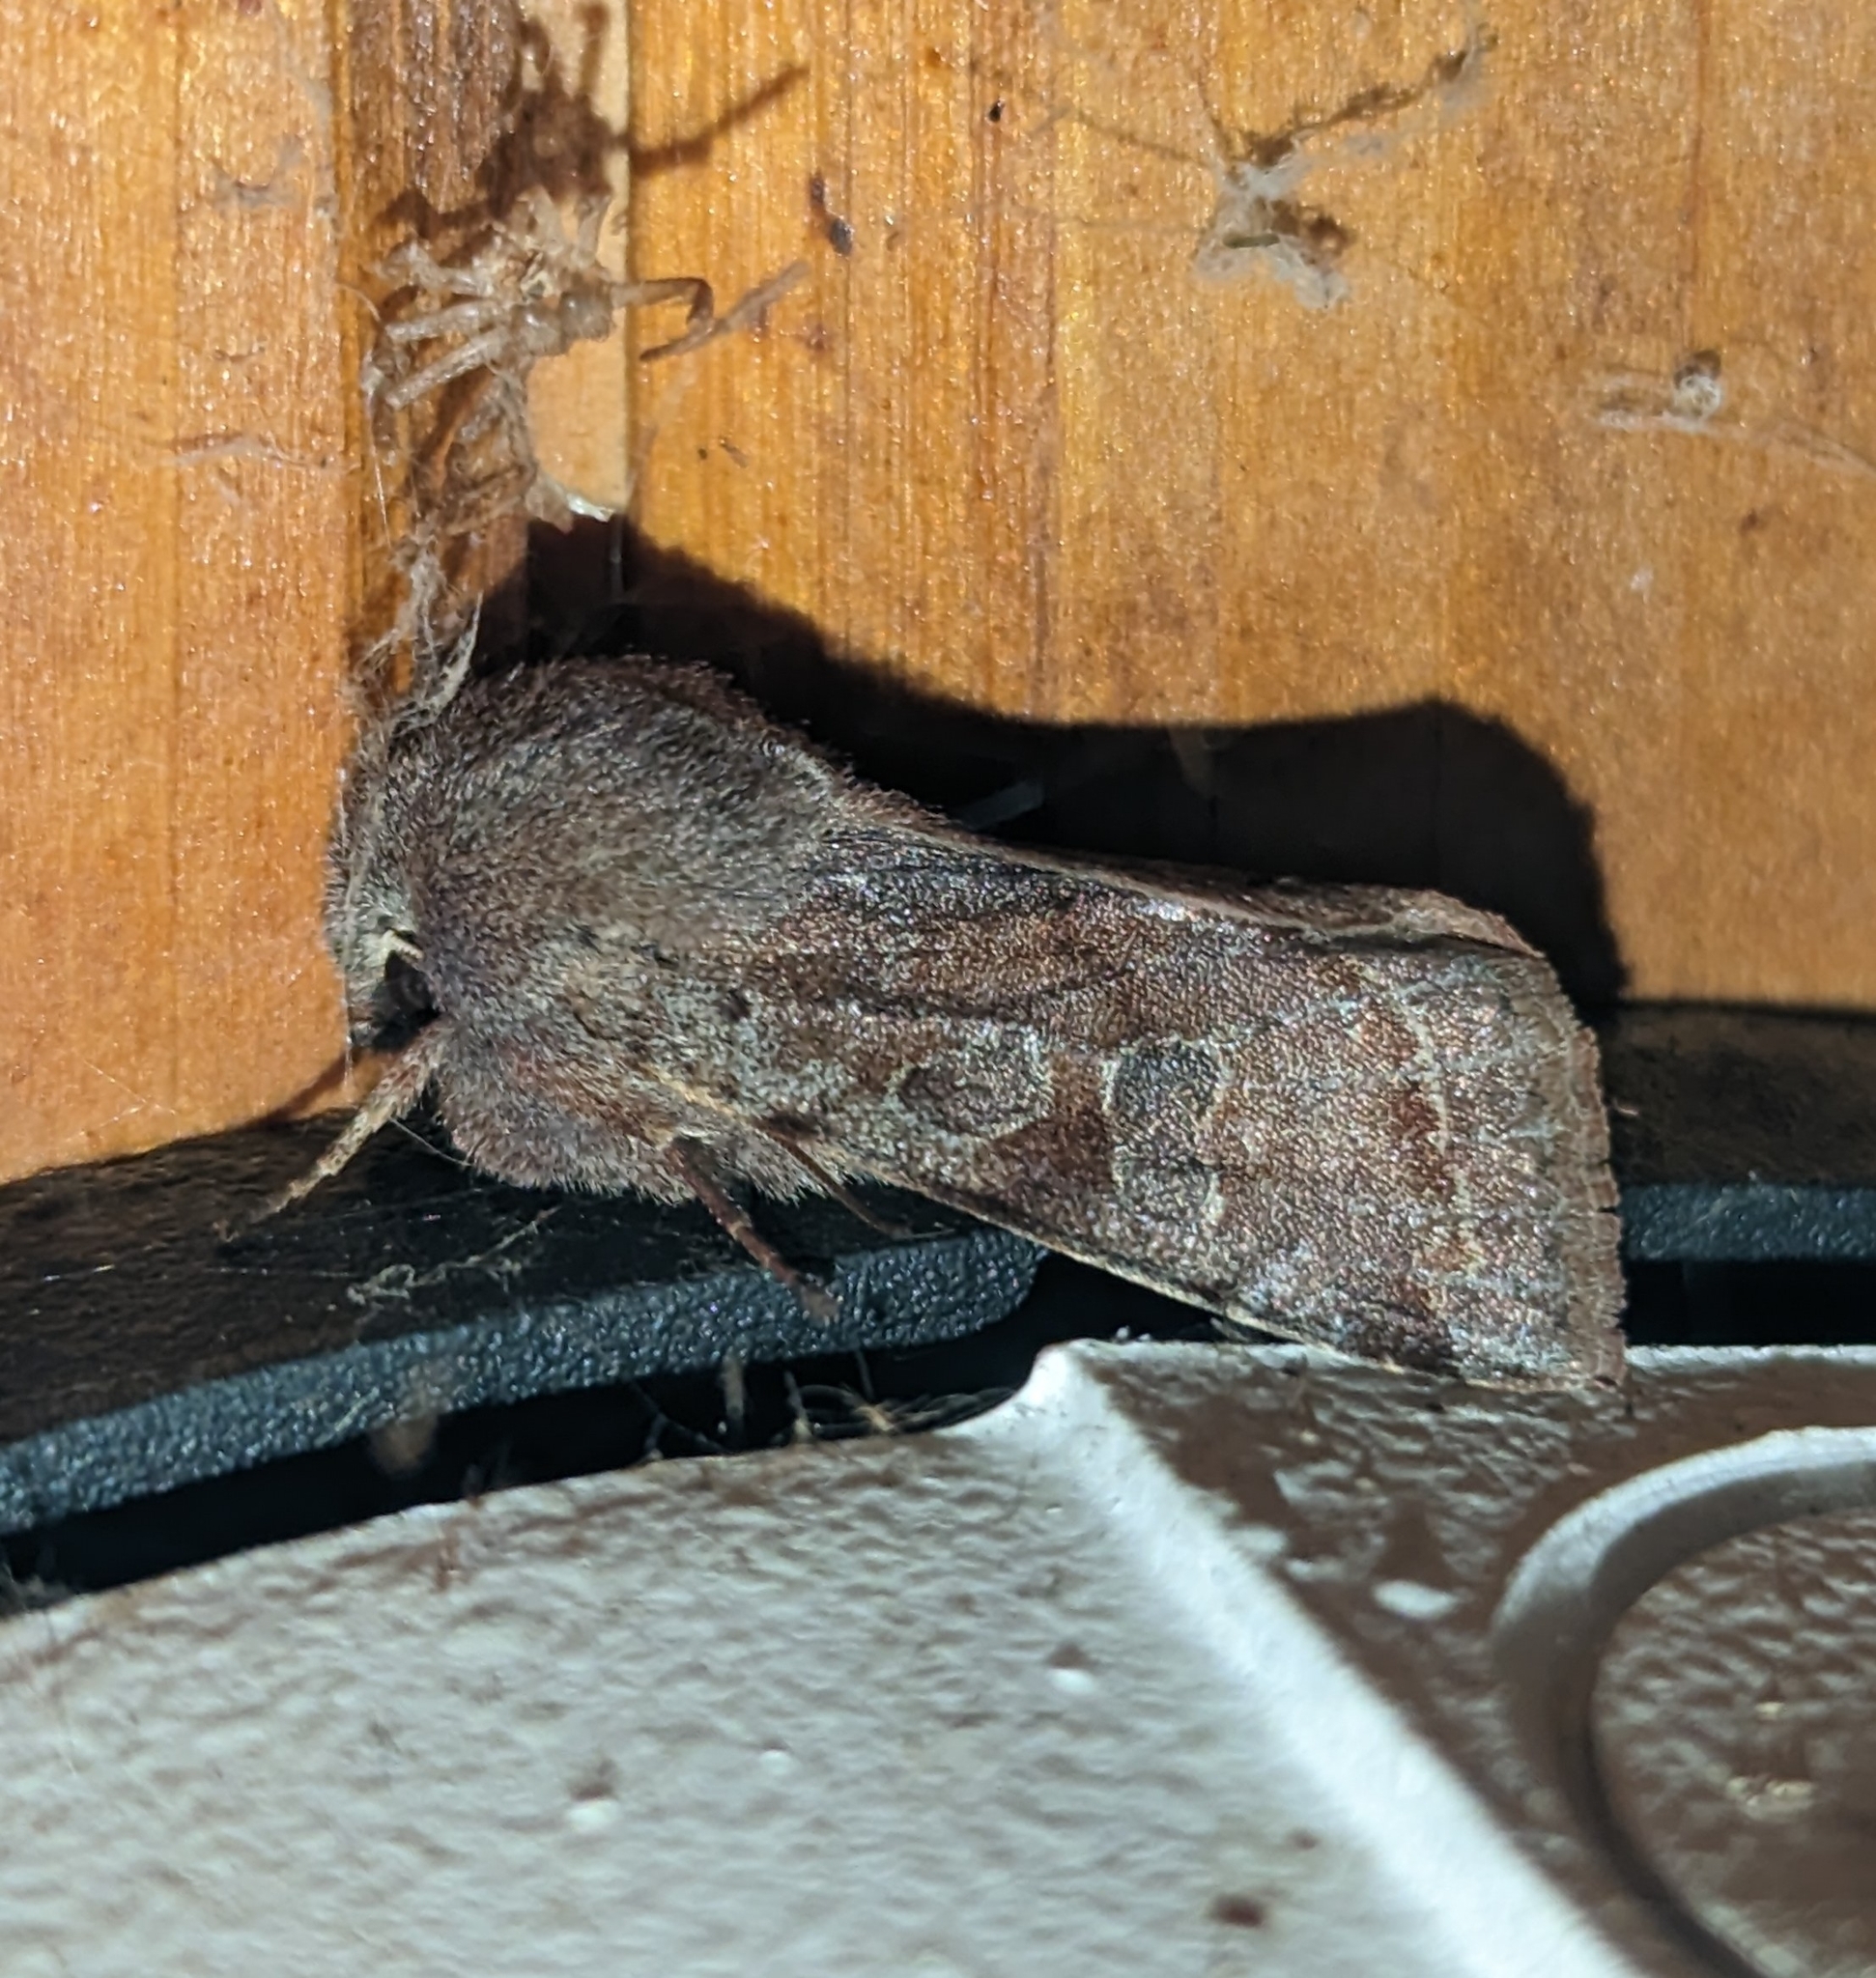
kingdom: Animalia
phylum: Arthropoda
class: Insecta
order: Lepidoptera
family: Noctuidae
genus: Orthosia
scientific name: Orthosia hibisci
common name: Green fruitworm
